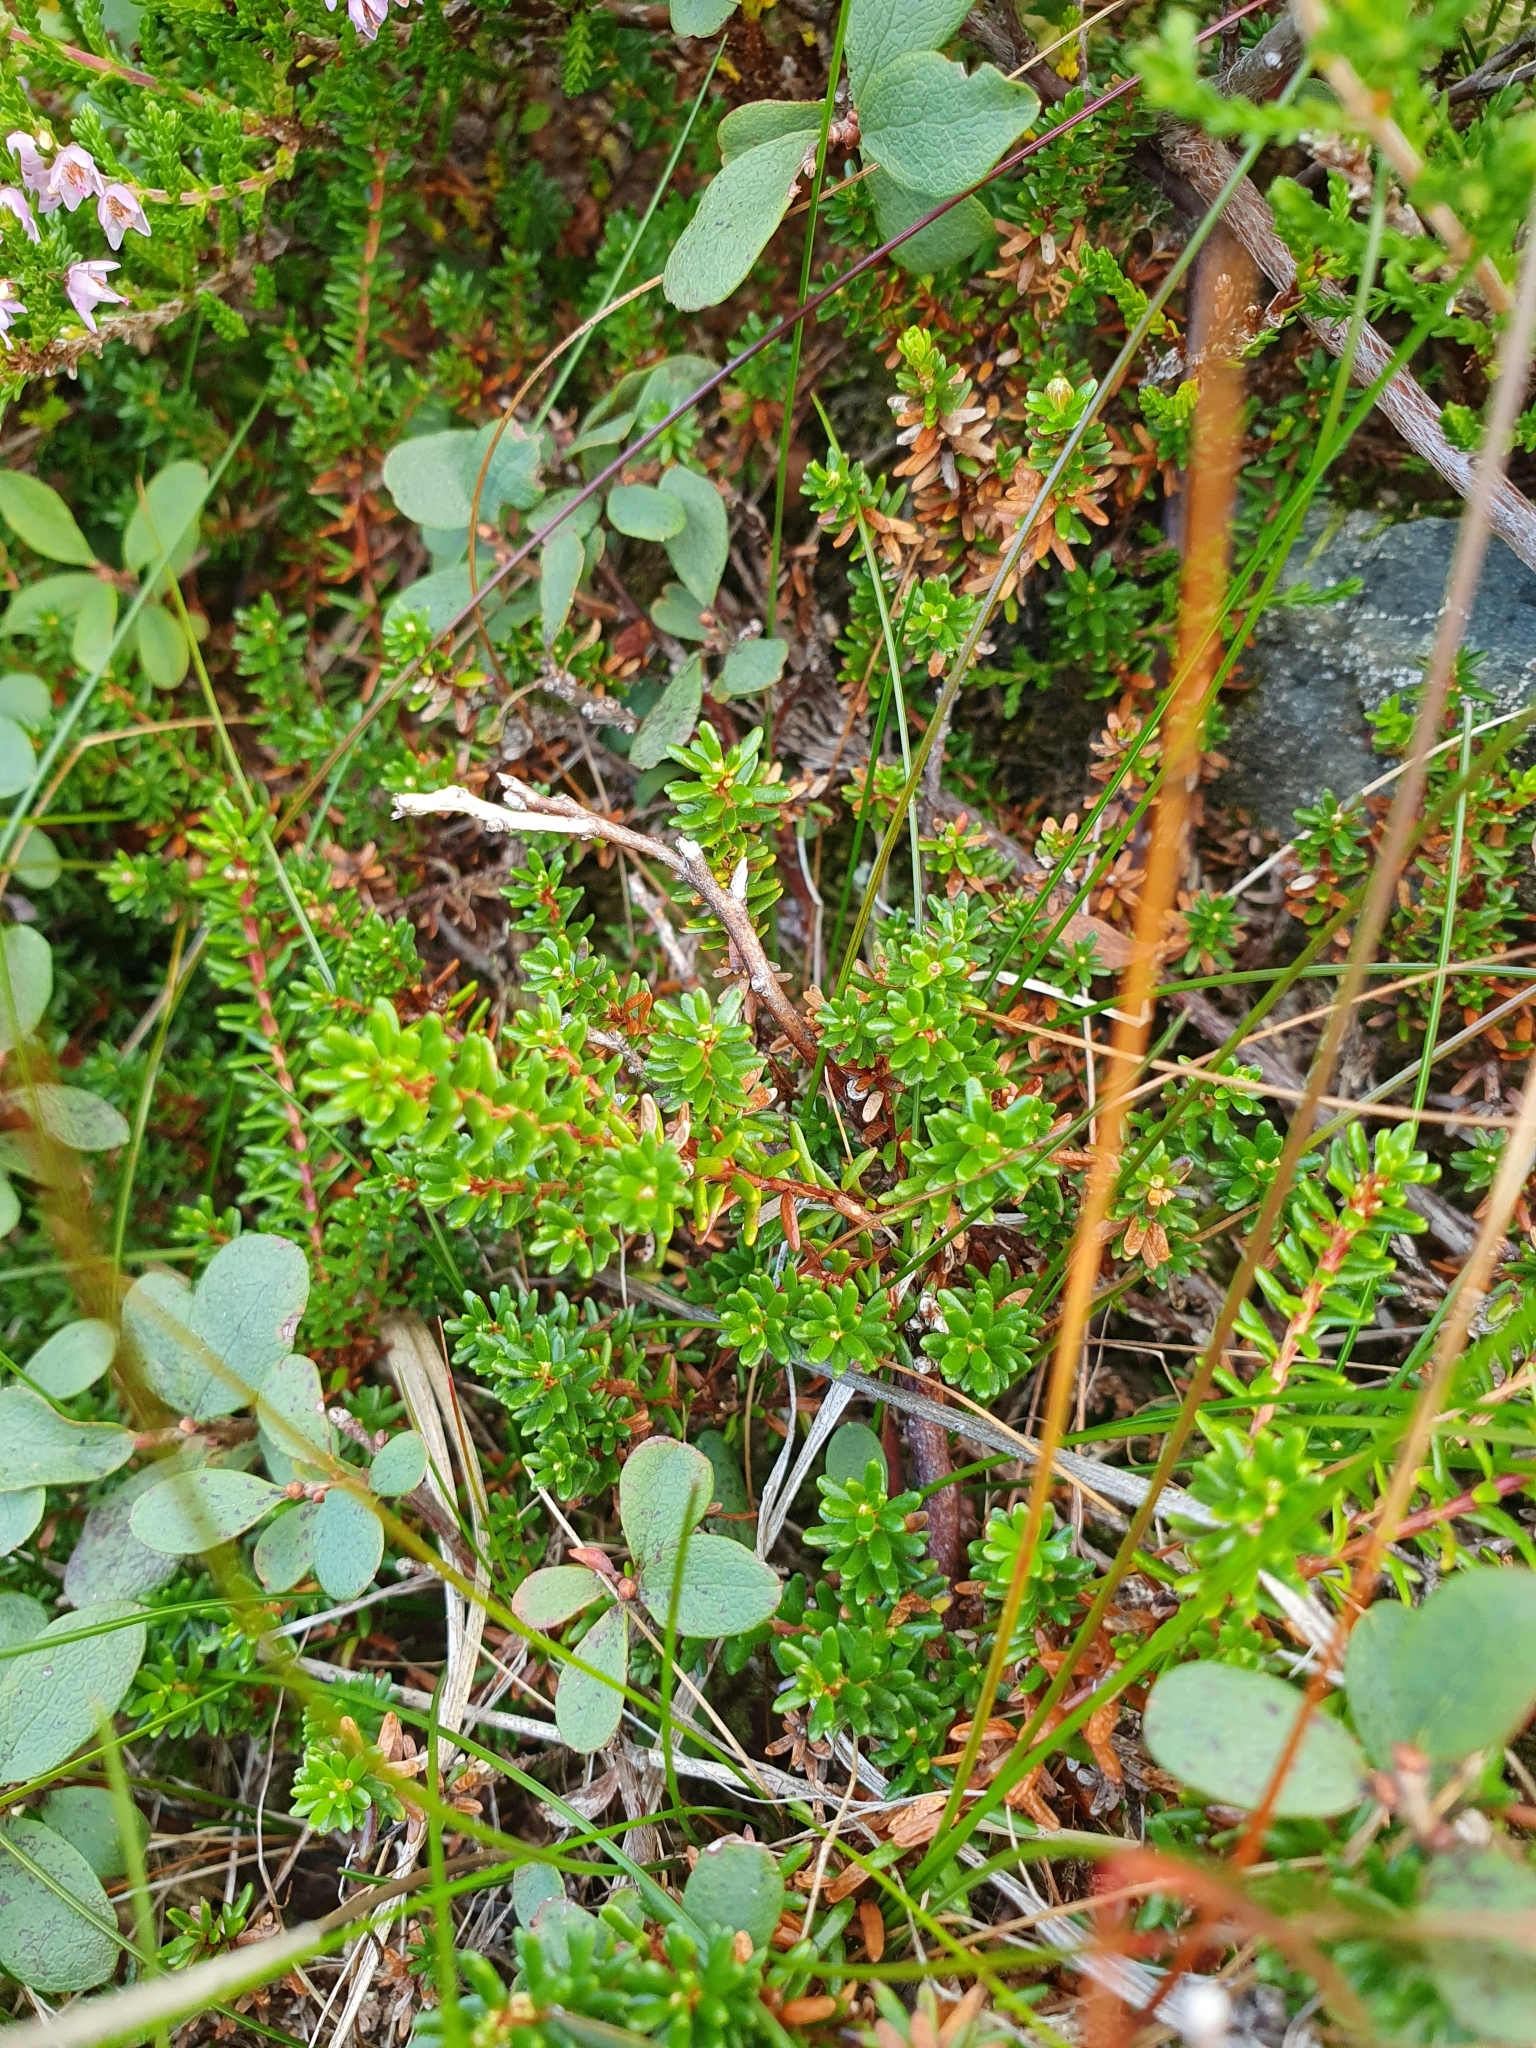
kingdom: Plantae
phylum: Tracheophyta
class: Magnoliopsida
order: Ericales
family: Ericaceae
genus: Empetrum
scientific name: Empetrum nigrum
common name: Black crowberry
